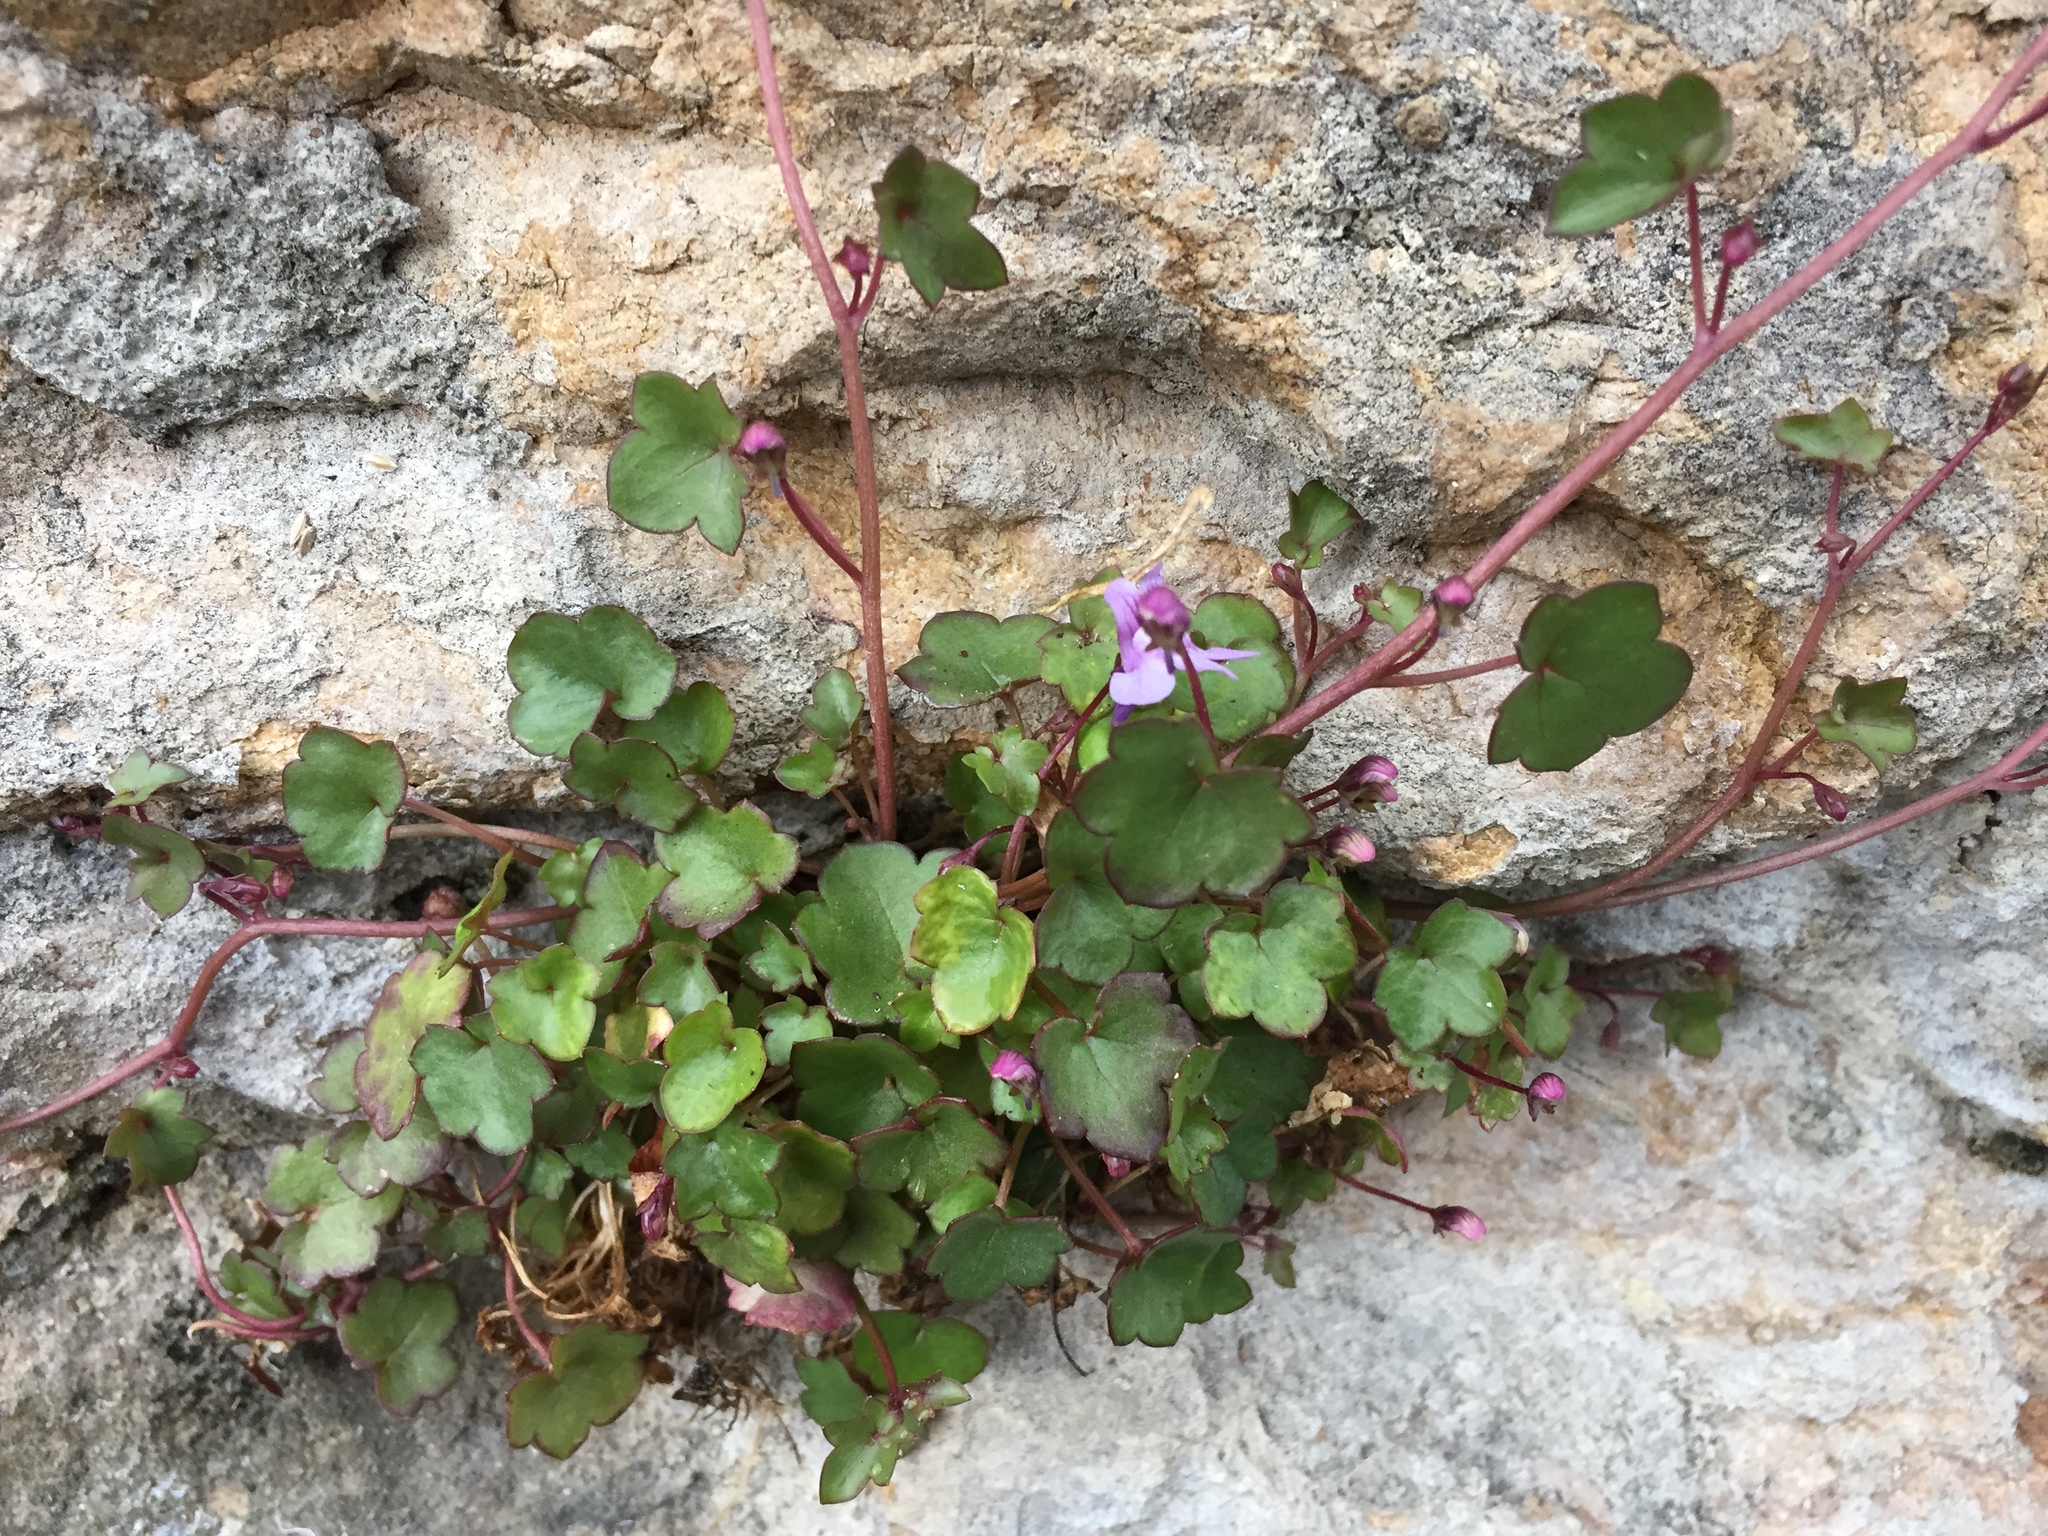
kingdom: Plantae
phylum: Tracheophyta
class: Magnoliopsida
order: Lamiales
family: Plantaginaceae
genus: Cymbalaria
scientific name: Cymbalaria muralis
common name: Ivy-leaved toadflax
